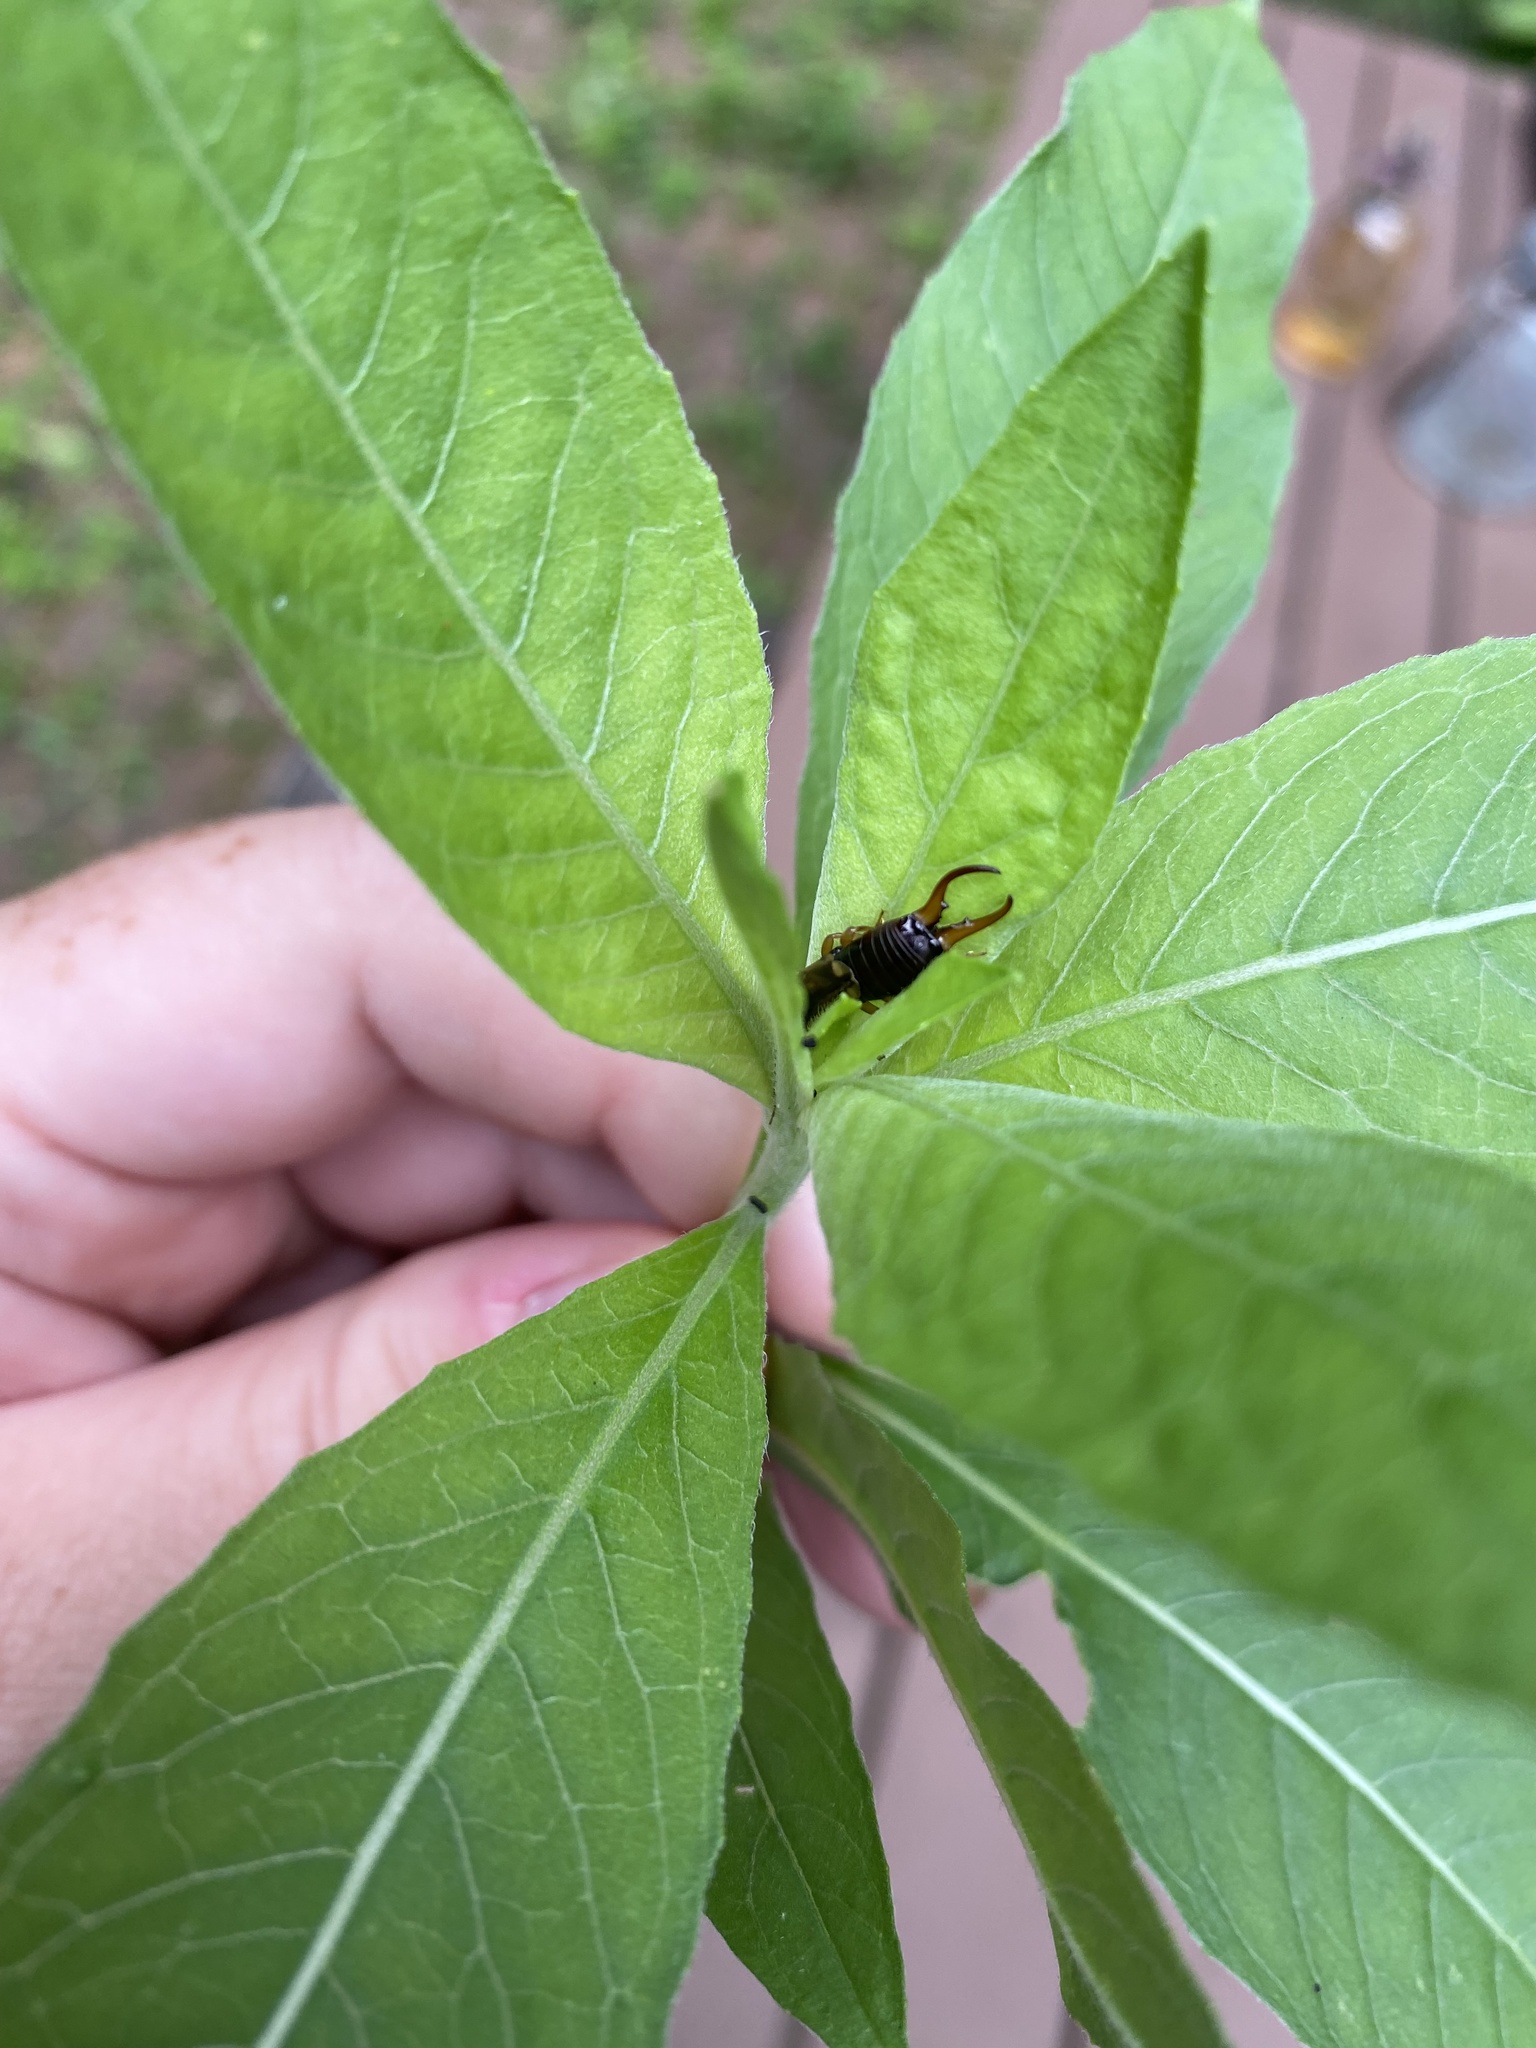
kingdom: Animalia
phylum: Arthropoda
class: Insecta
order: Dermaptera
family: Forficulidae
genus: Forficula
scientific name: Forficula
